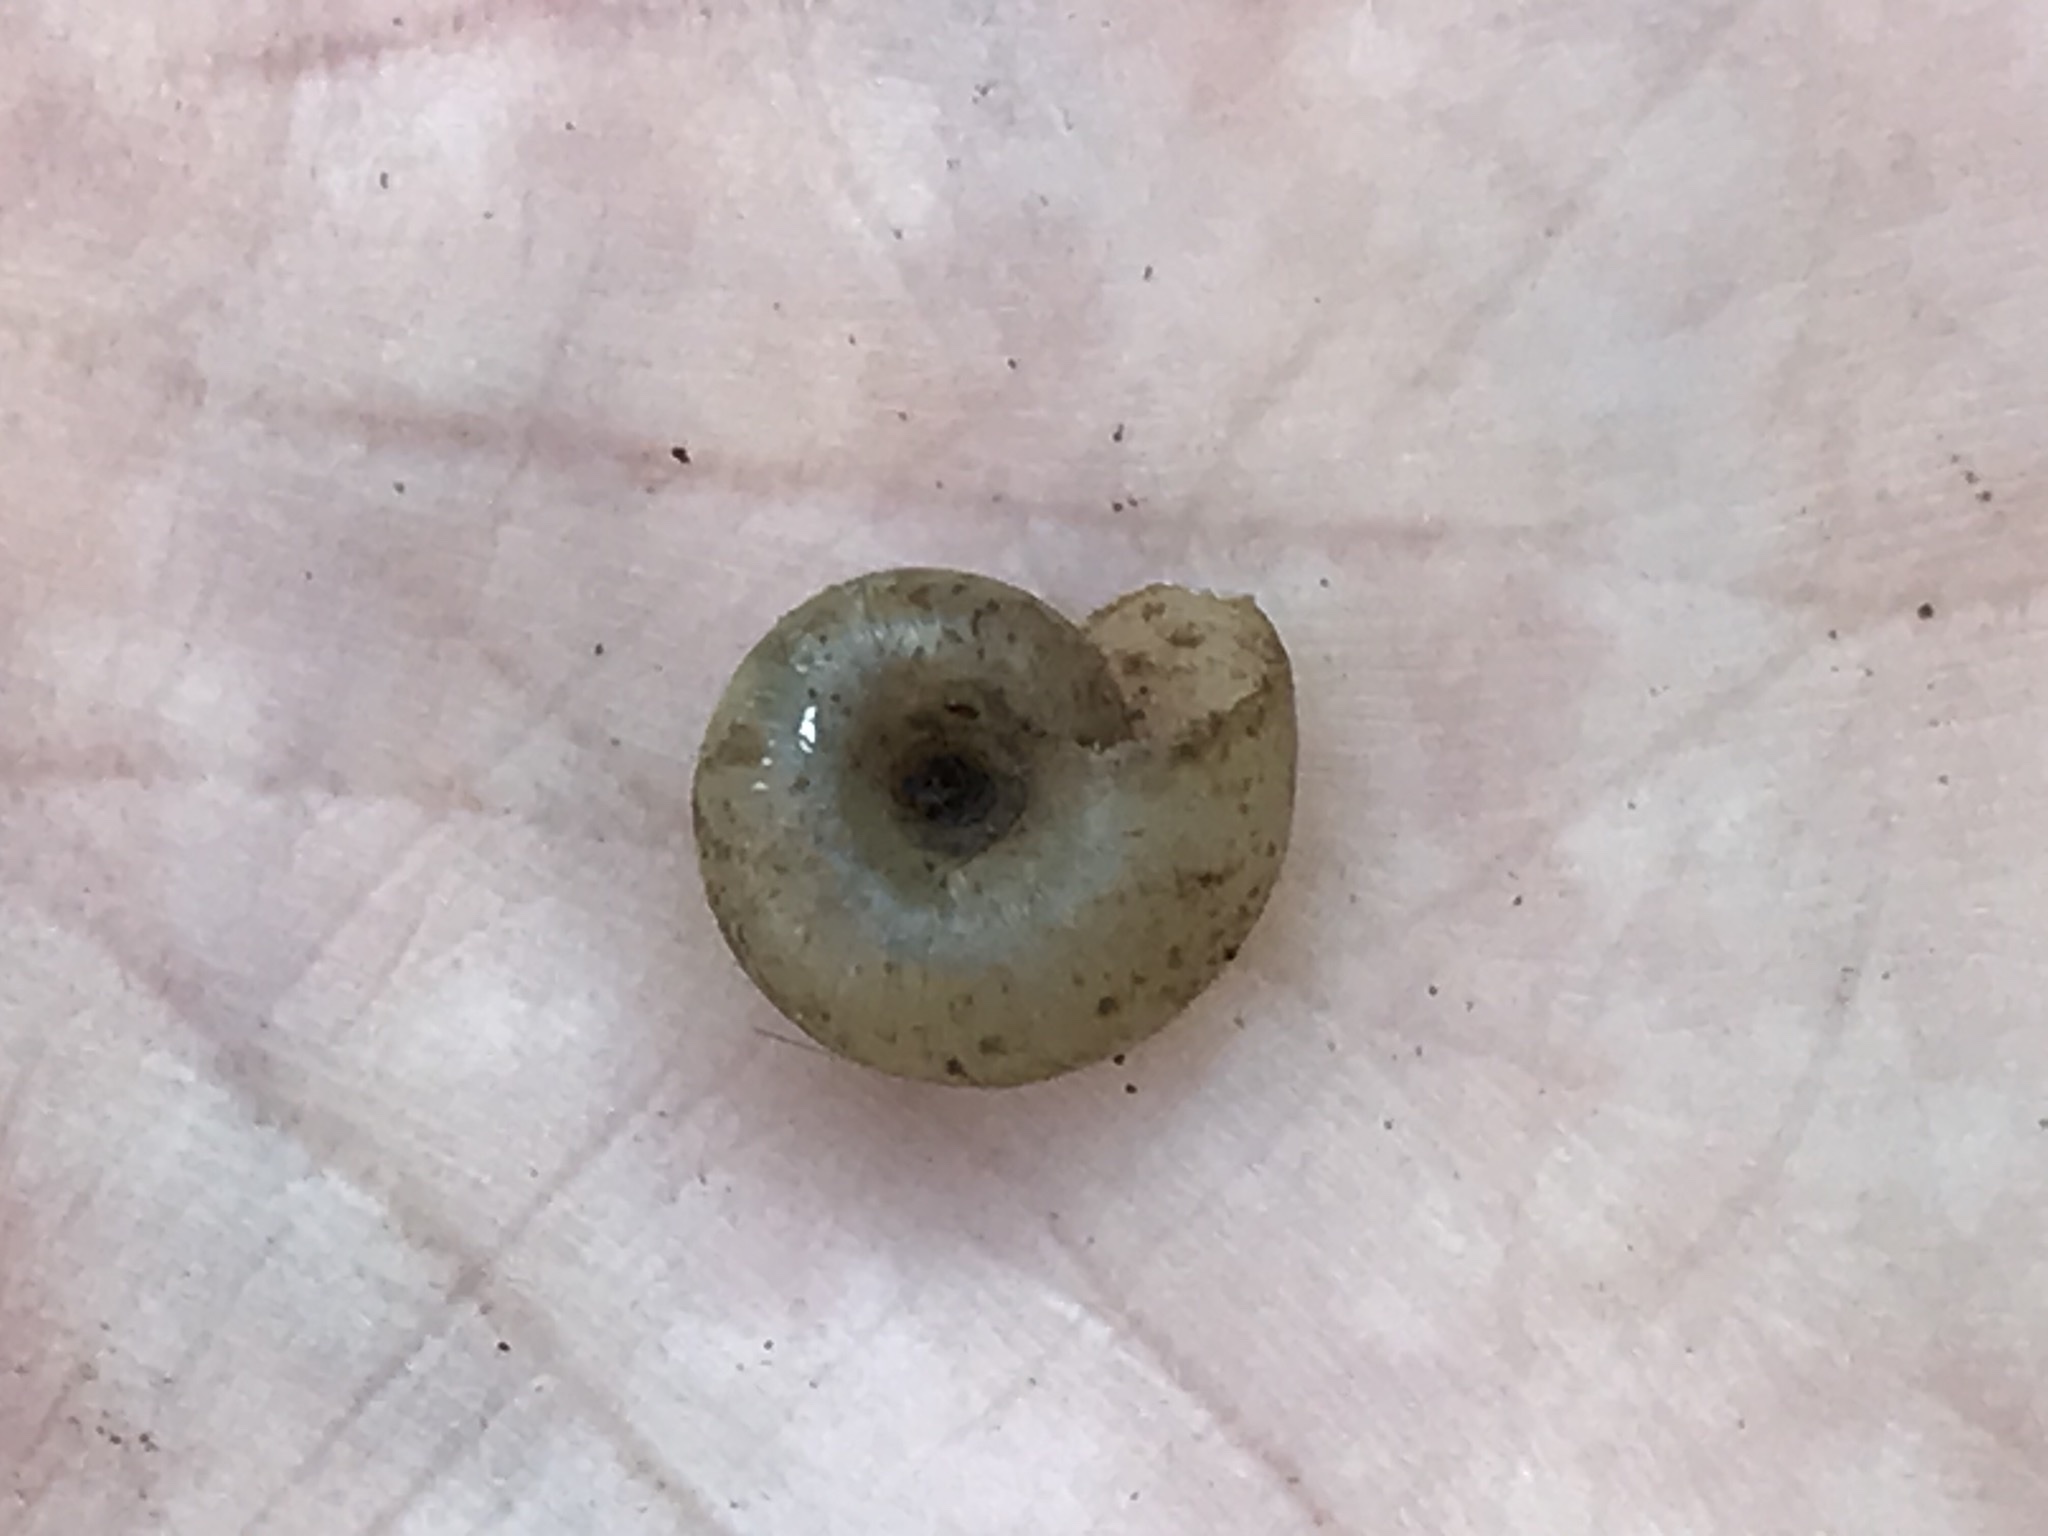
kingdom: Animalia
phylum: Mollusca
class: Gastropoda
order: Stylommatophora
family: Haplotrematidae
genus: Haplotrema
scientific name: Haplotrema minimum
